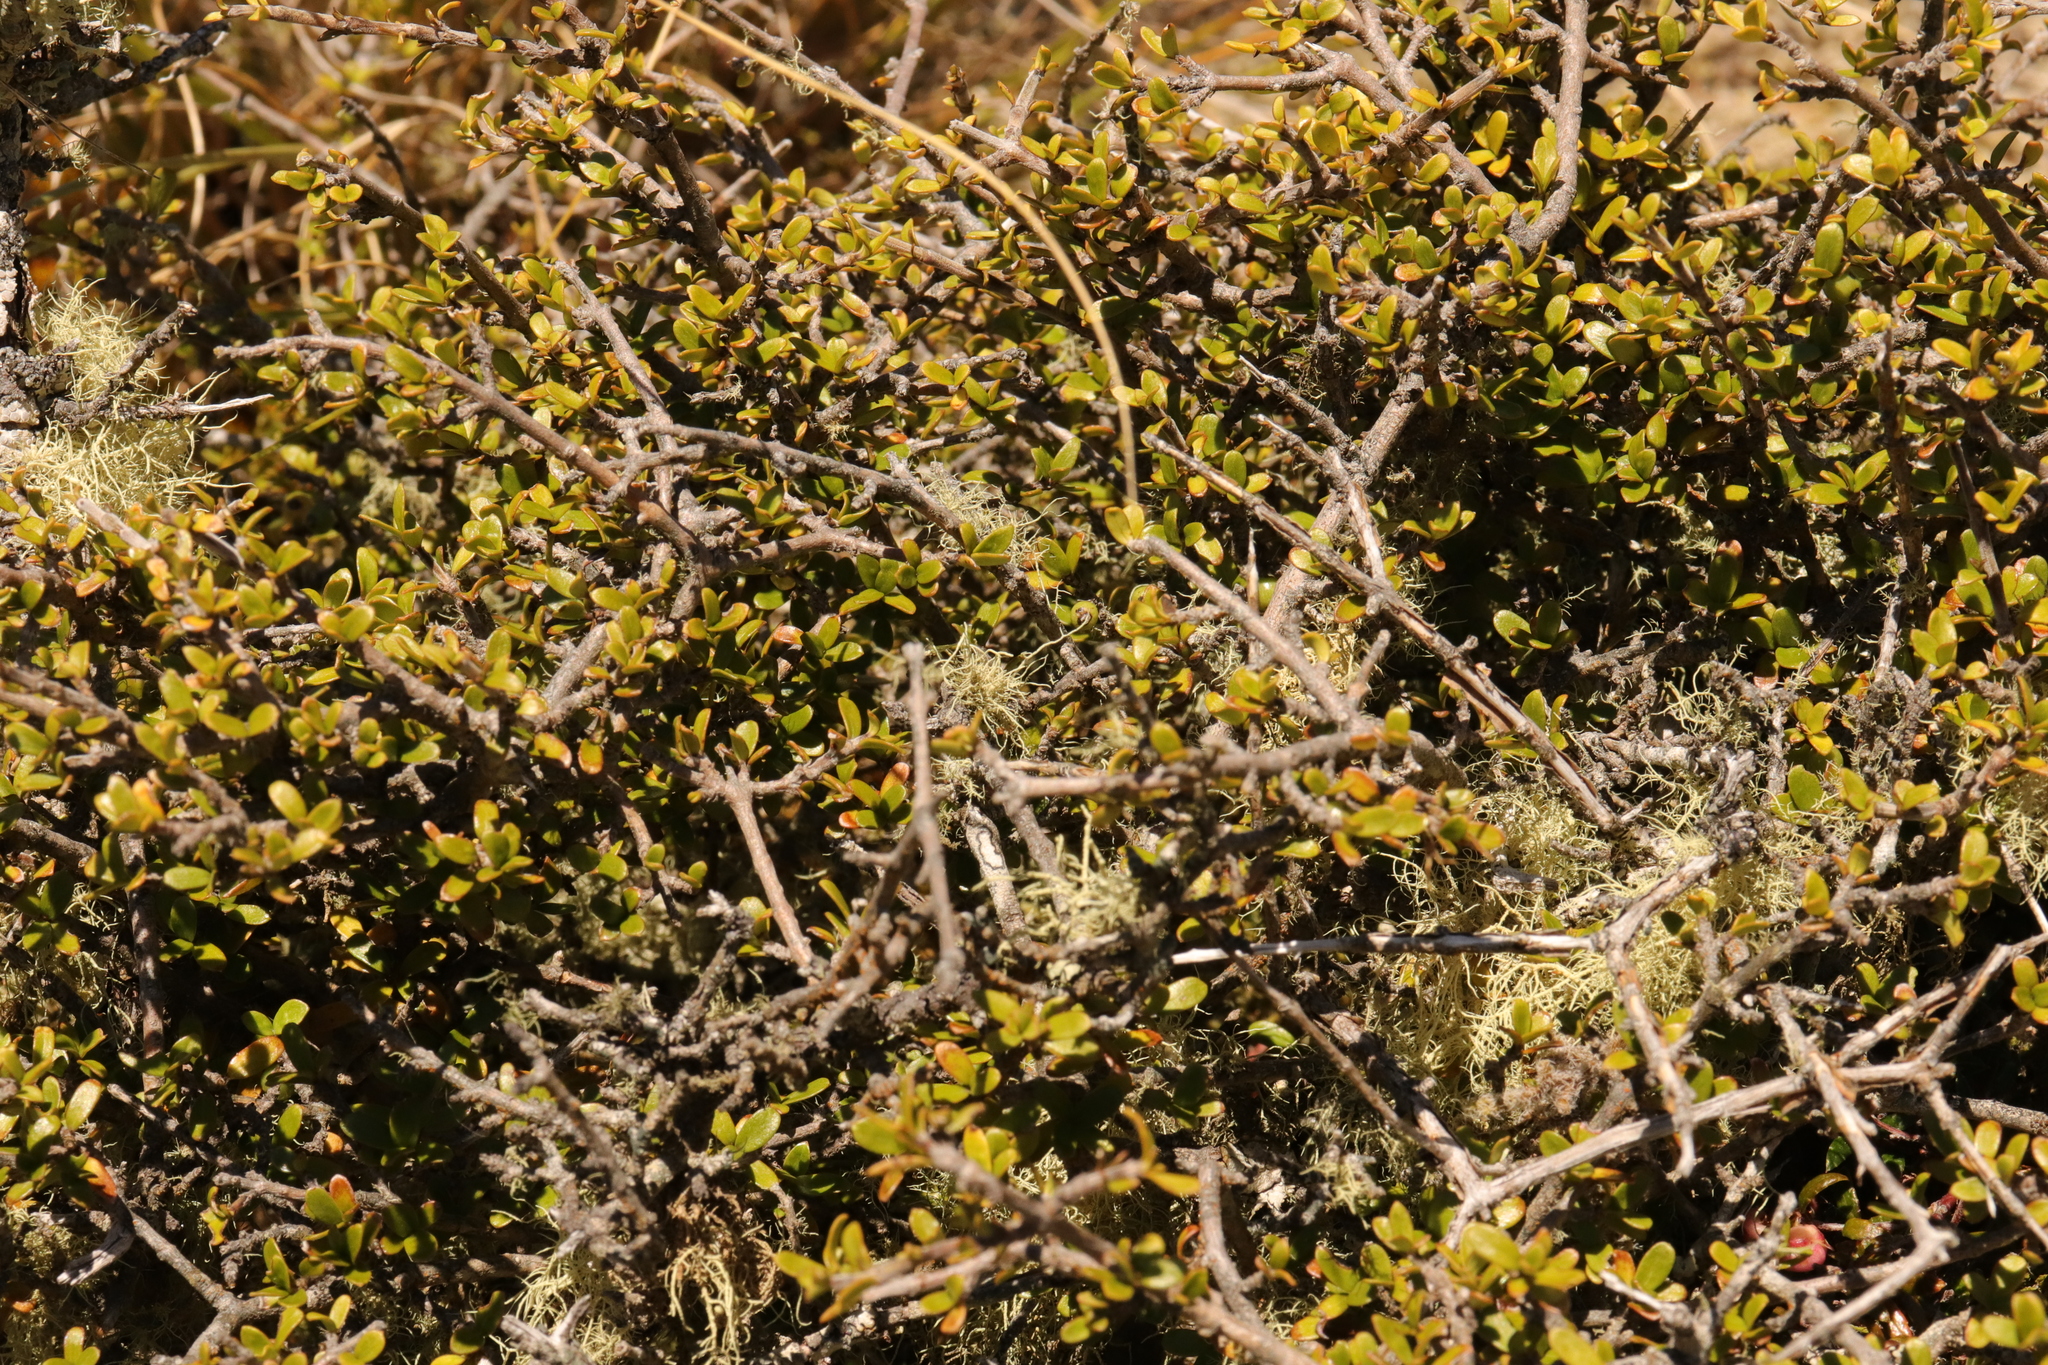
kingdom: Plantae
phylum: Tracheophyta
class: Magnoliopsida
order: Gentianales
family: Rubiaceae
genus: Coprosma
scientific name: Coprosma dumosa
